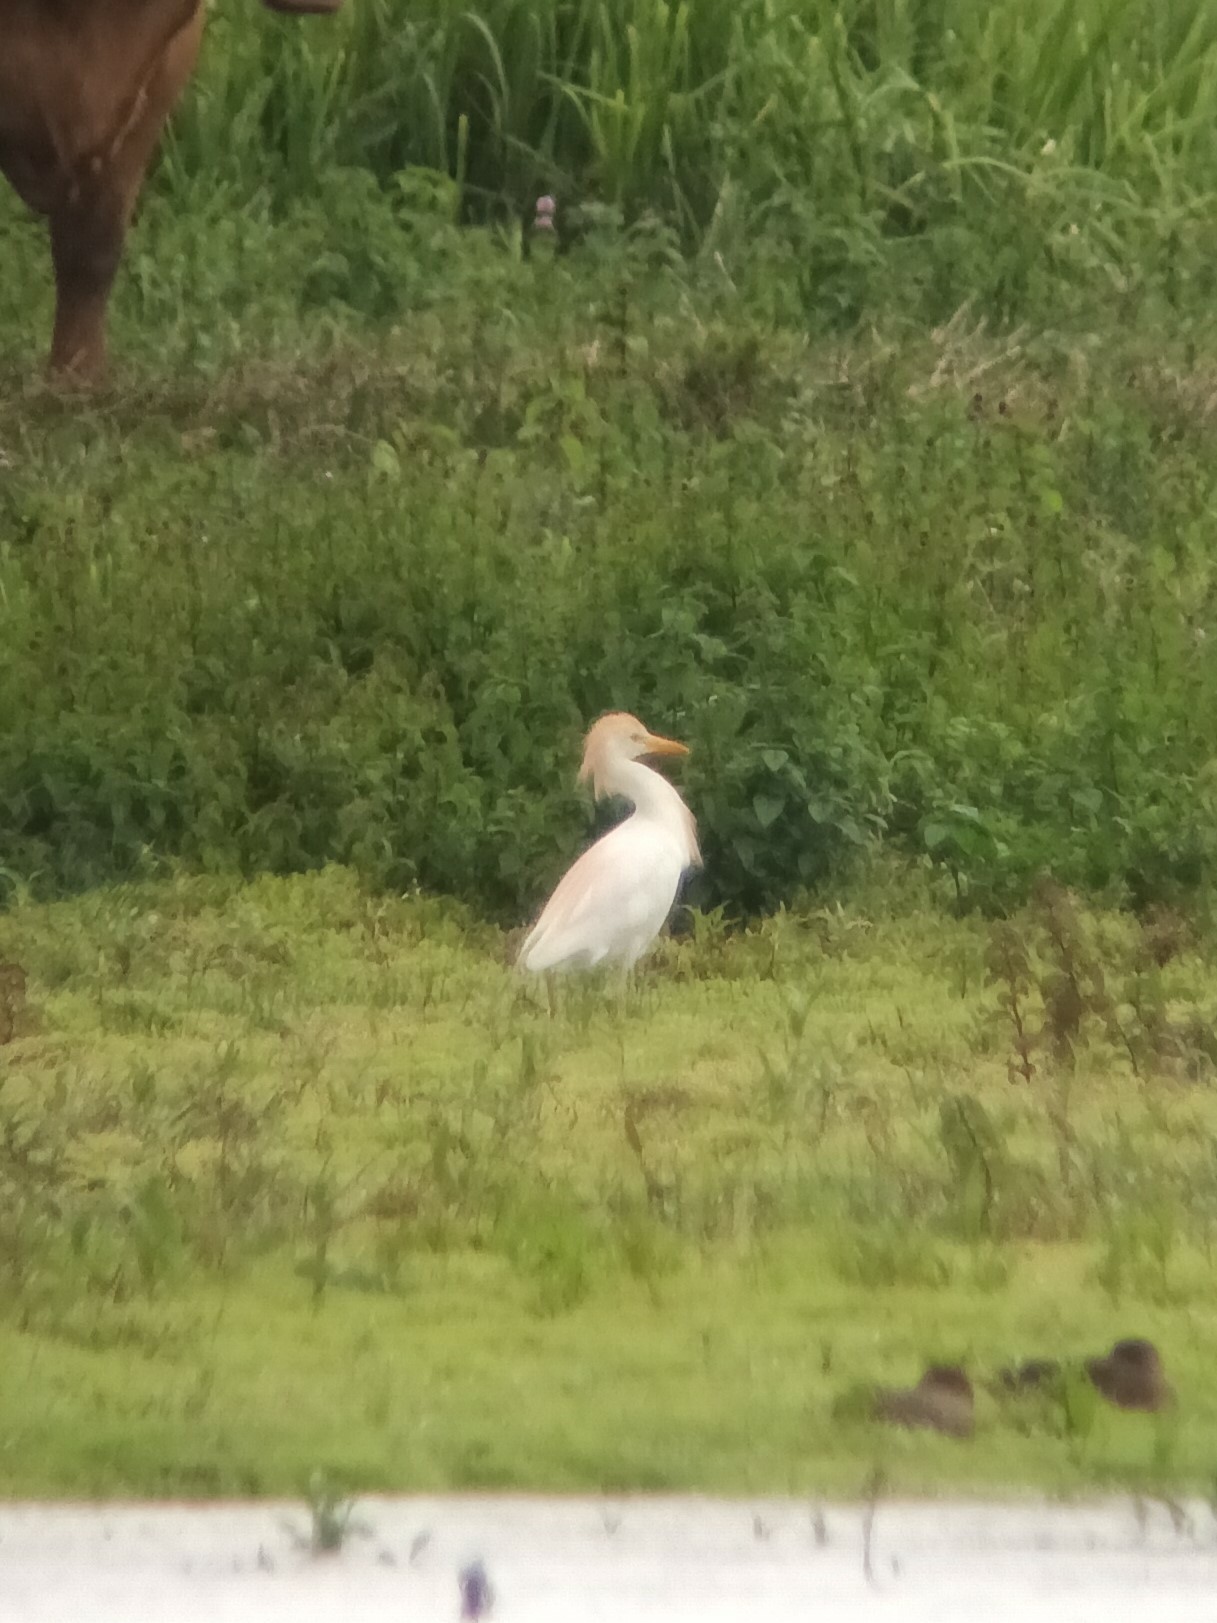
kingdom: Animalia
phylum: Chordata
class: Aves
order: Pelecaniformes
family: Ardeidae
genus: Bubulcus
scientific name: Bubulcus ibis
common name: Cattle egret
